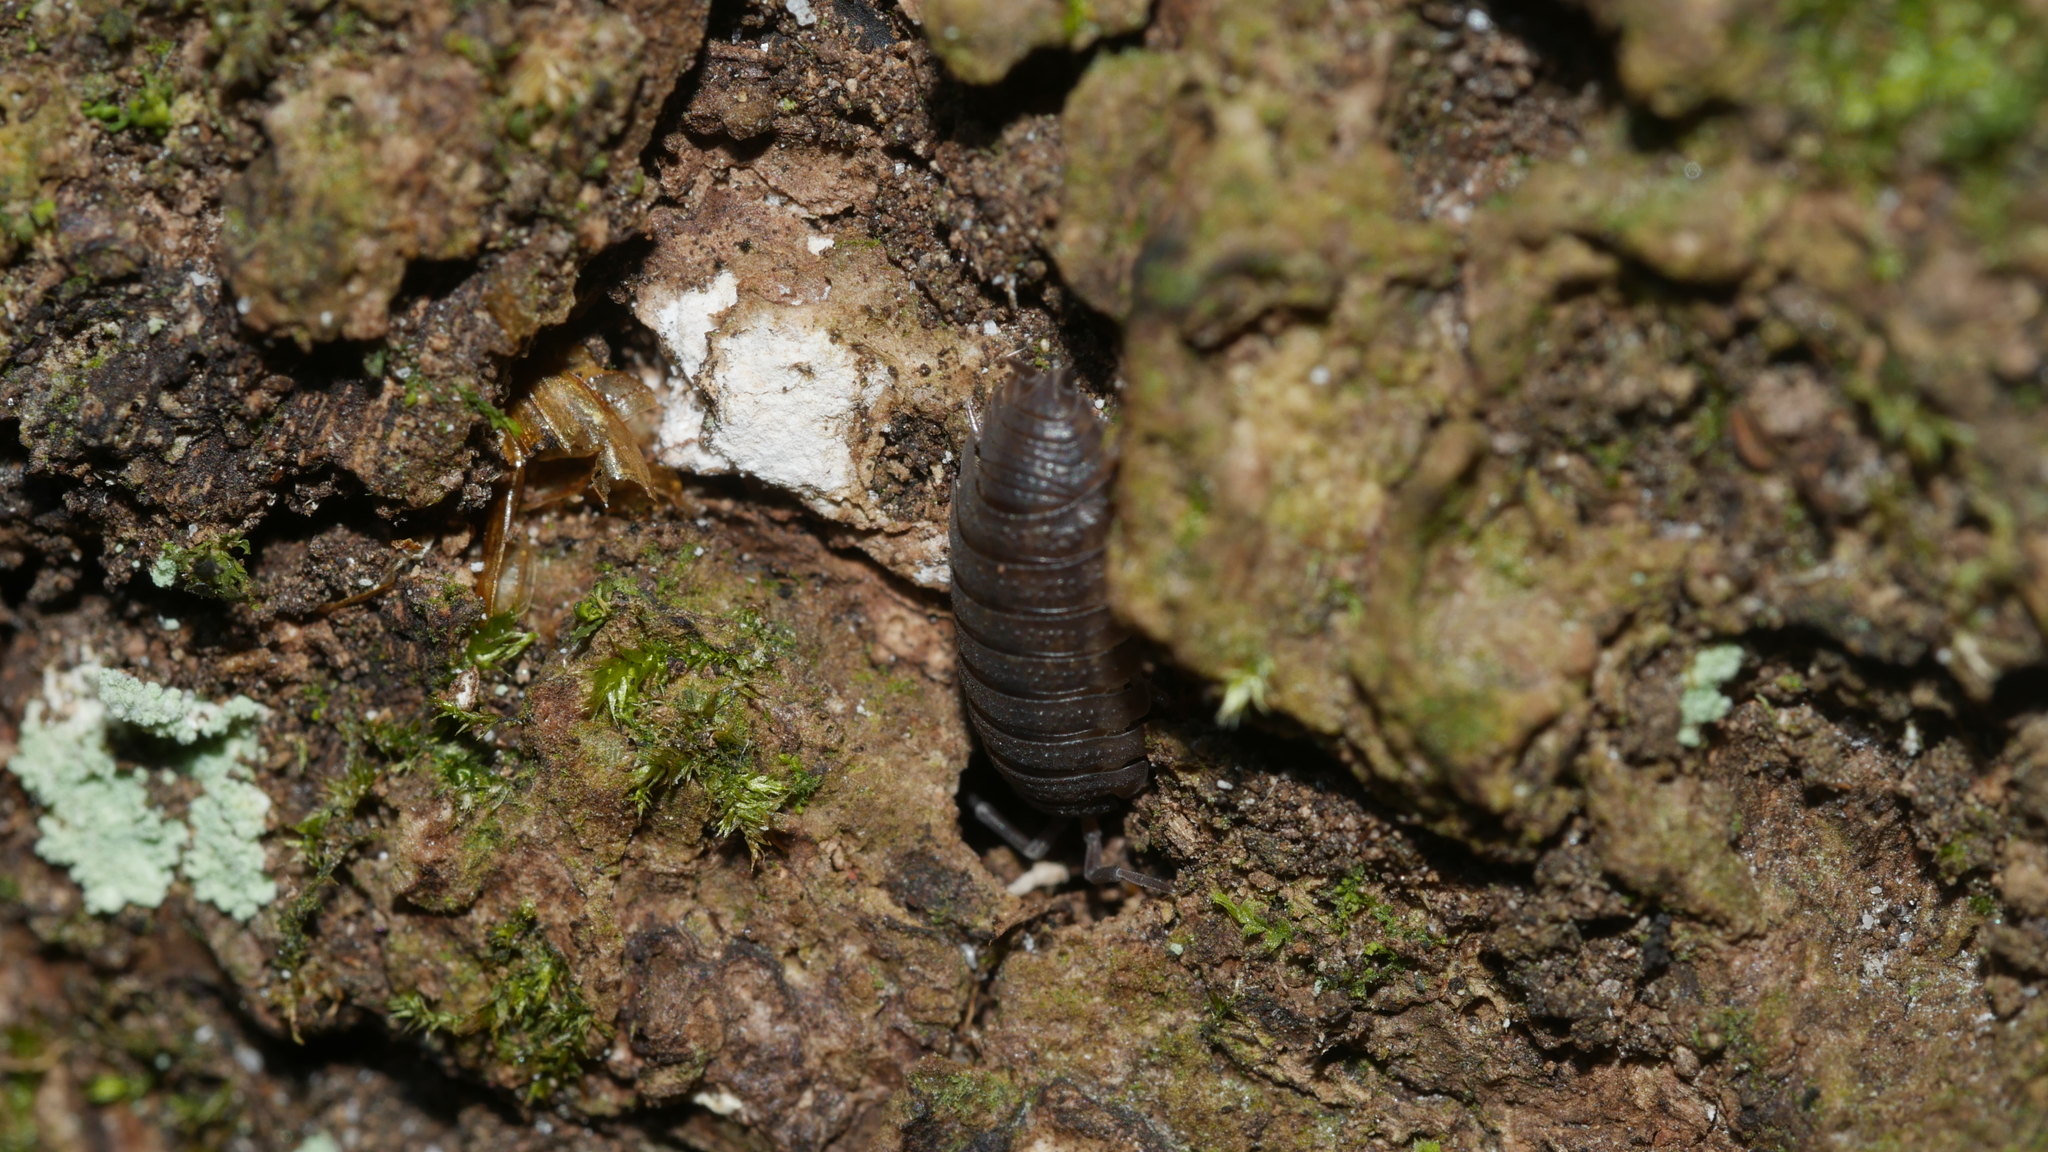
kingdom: Animalia
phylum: Arthropoda
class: Malacostraca
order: Isopoda
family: Porcellionidae
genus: Porcellio
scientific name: Porcellio scaber
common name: Common rough woodlouse
